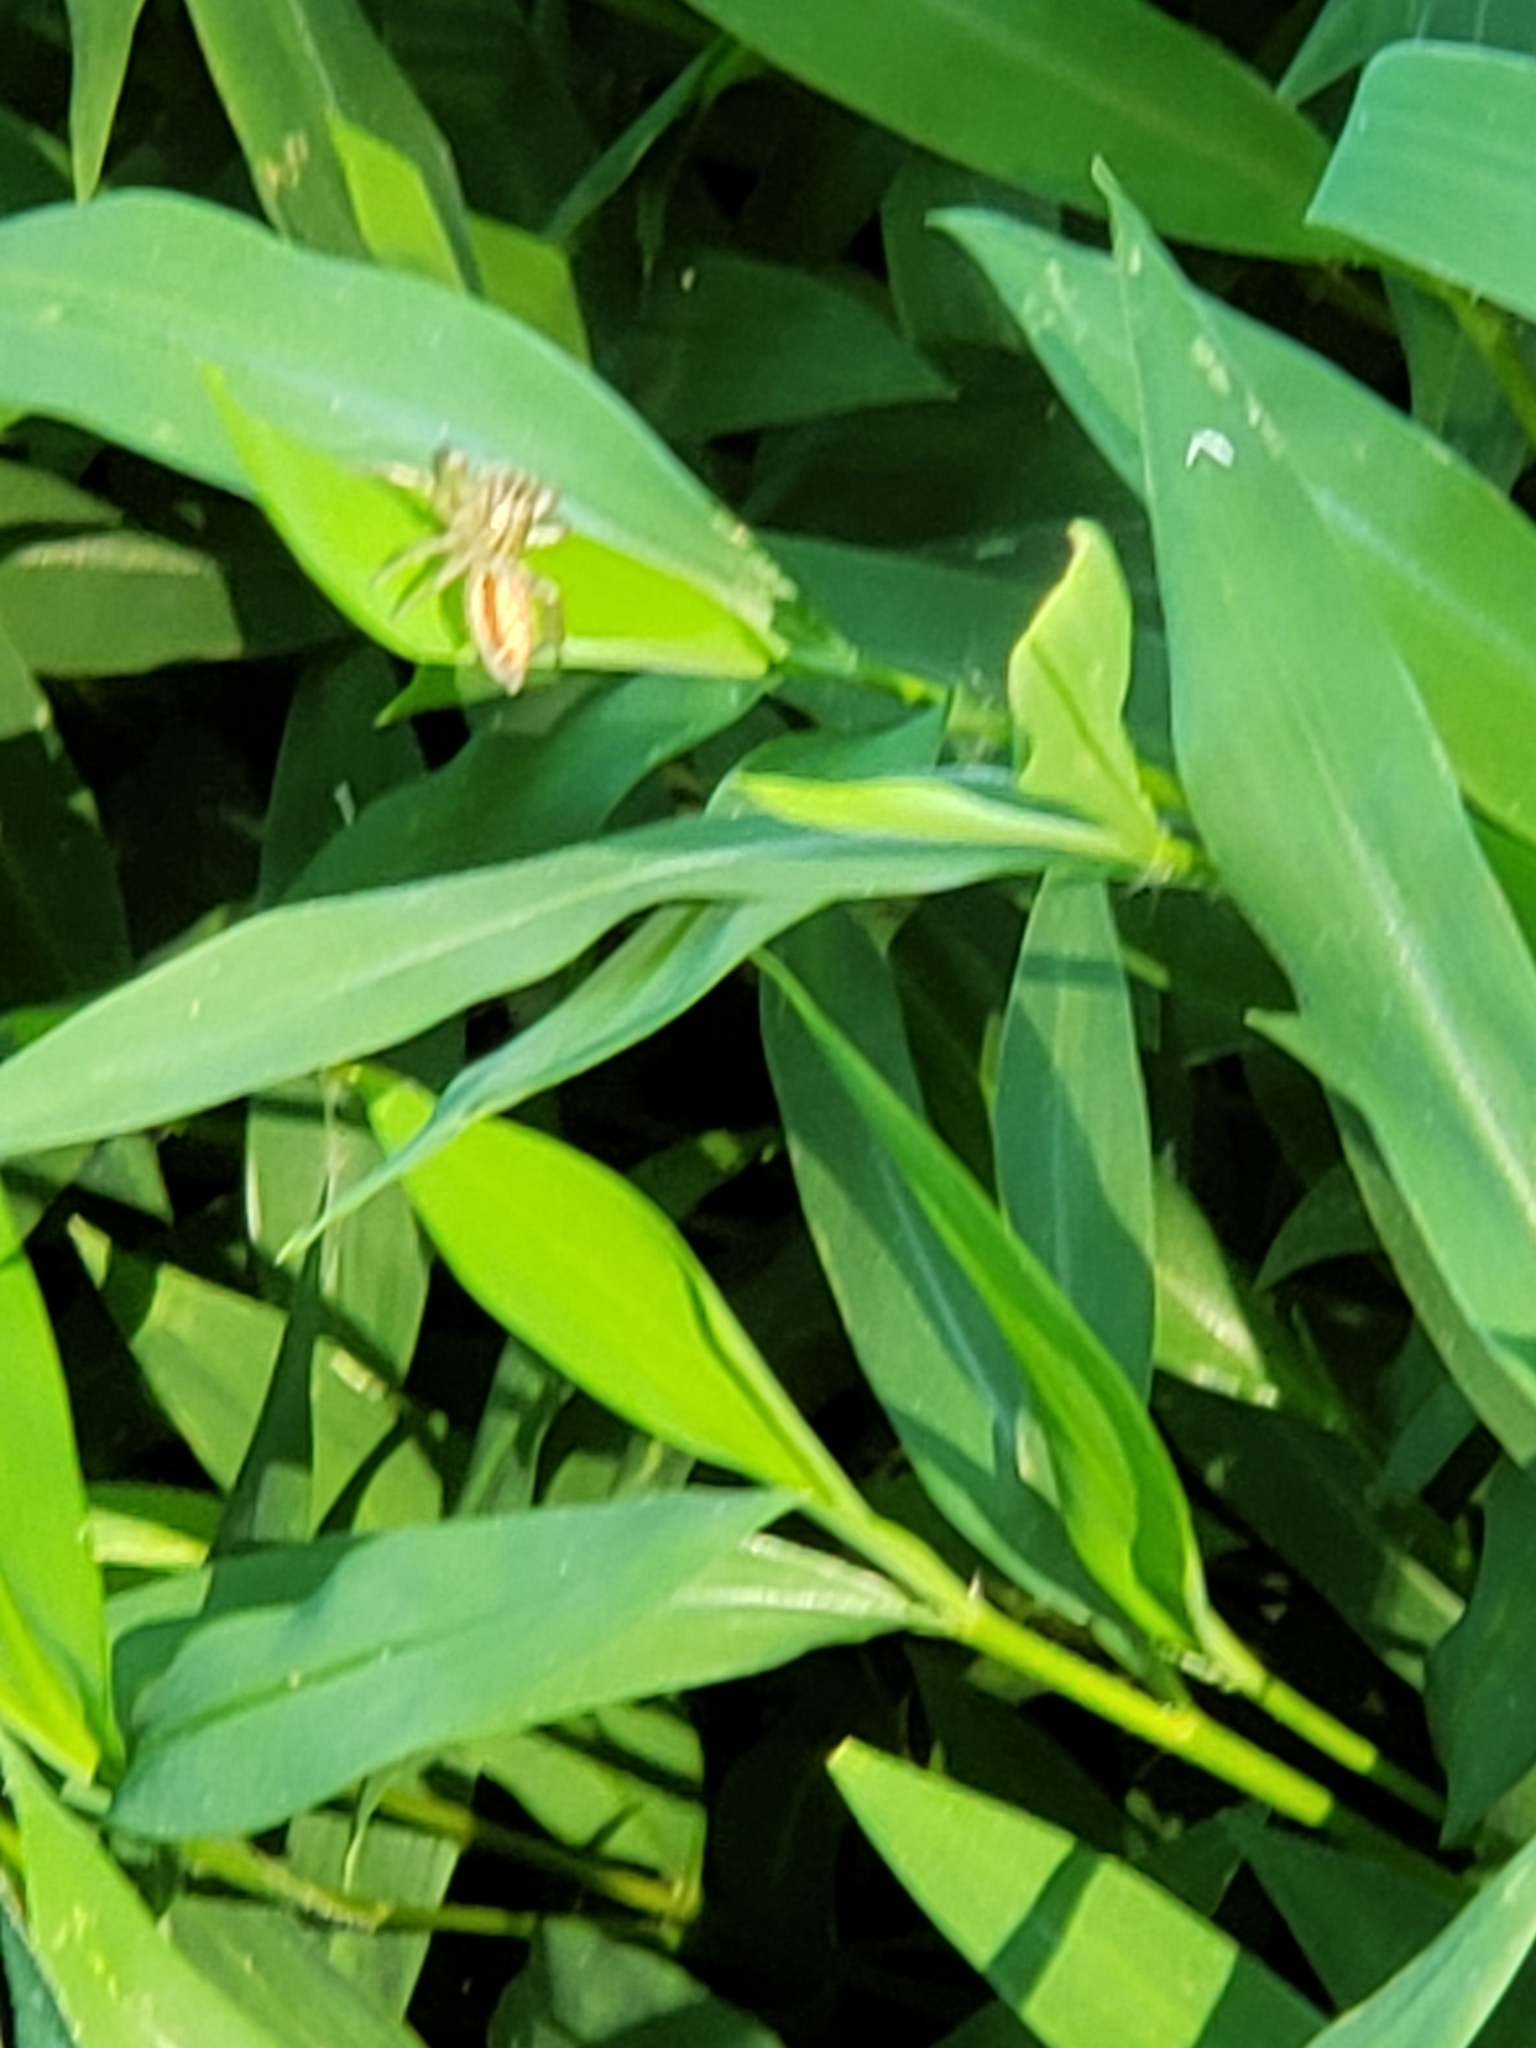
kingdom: Animalia
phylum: Arthropoda
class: Arachnida
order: Araneae
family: Salticidae
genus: Maevia
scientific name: Maevia inclemens
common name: Dimorphic jumper
